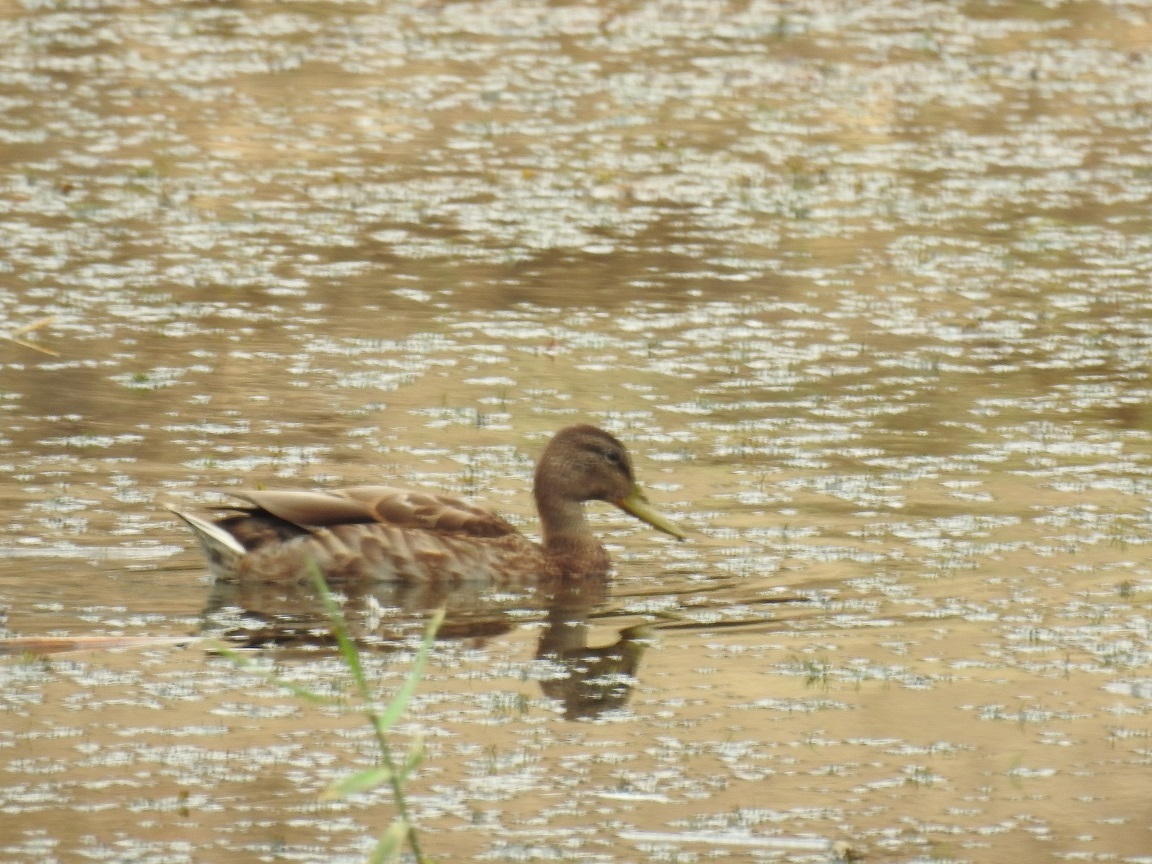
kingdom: Animalia
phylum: Chordata
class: Aves
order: Anseriformes
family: Anatidae
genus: Anas
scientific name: Anas platyrhynchos
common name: Mallard
